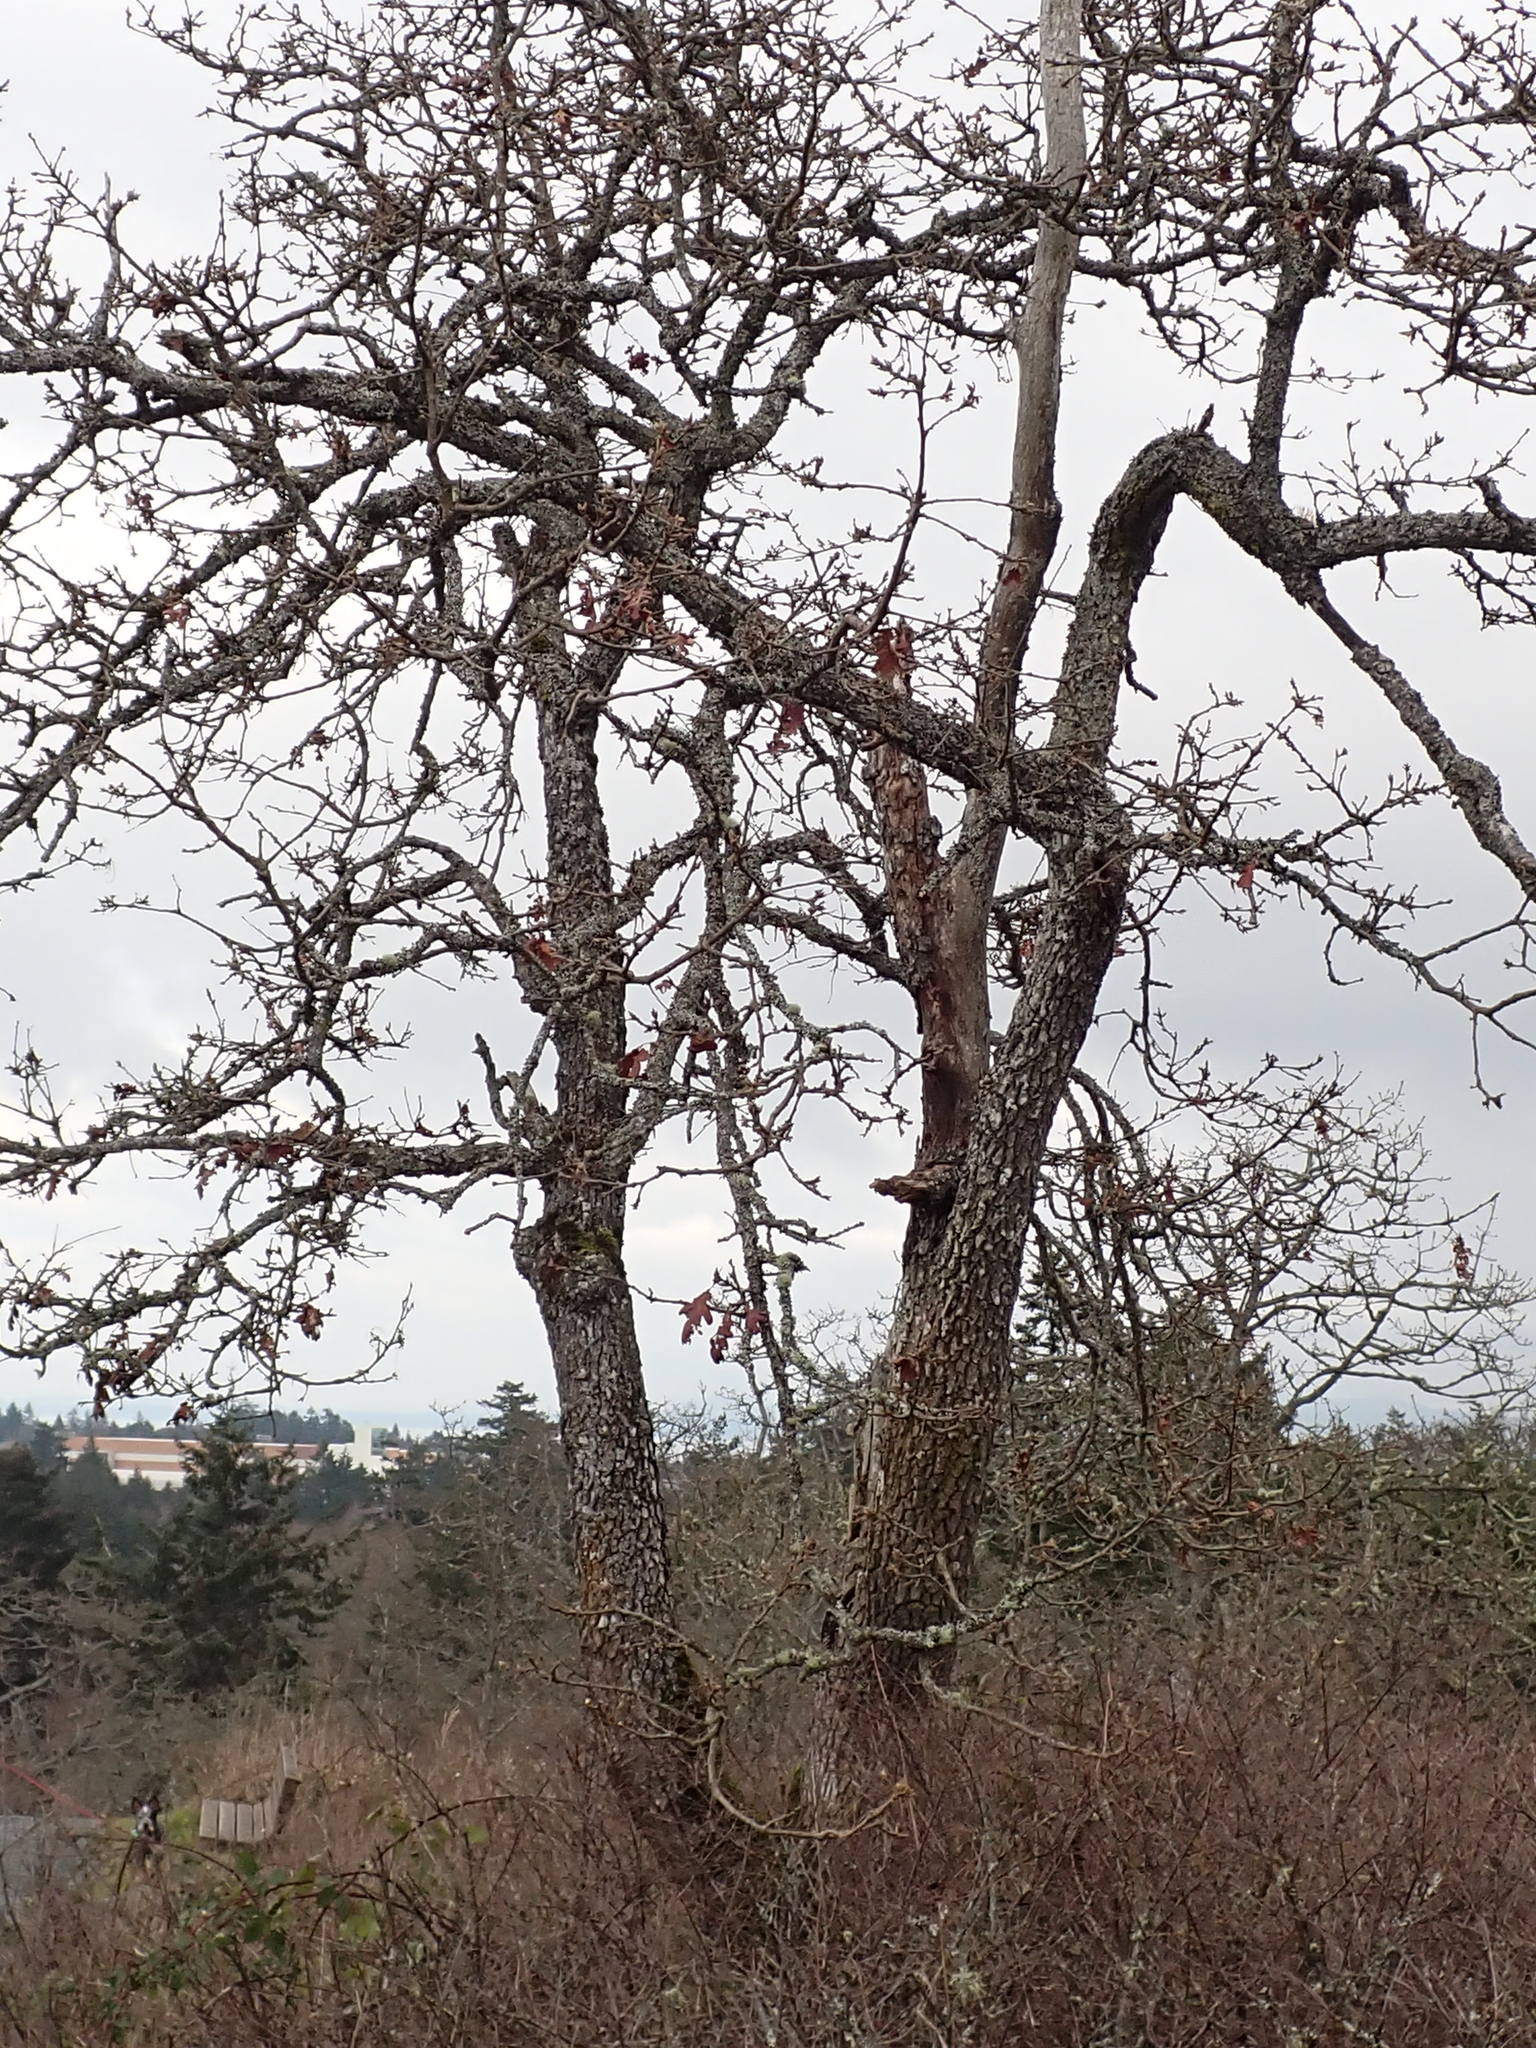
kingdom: Plantae
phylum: Tracheophyta
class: Magnoliopsida
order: Fagales
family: Fagaceae
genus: Quercus
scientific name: Quercus garryana
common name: Garry oak
